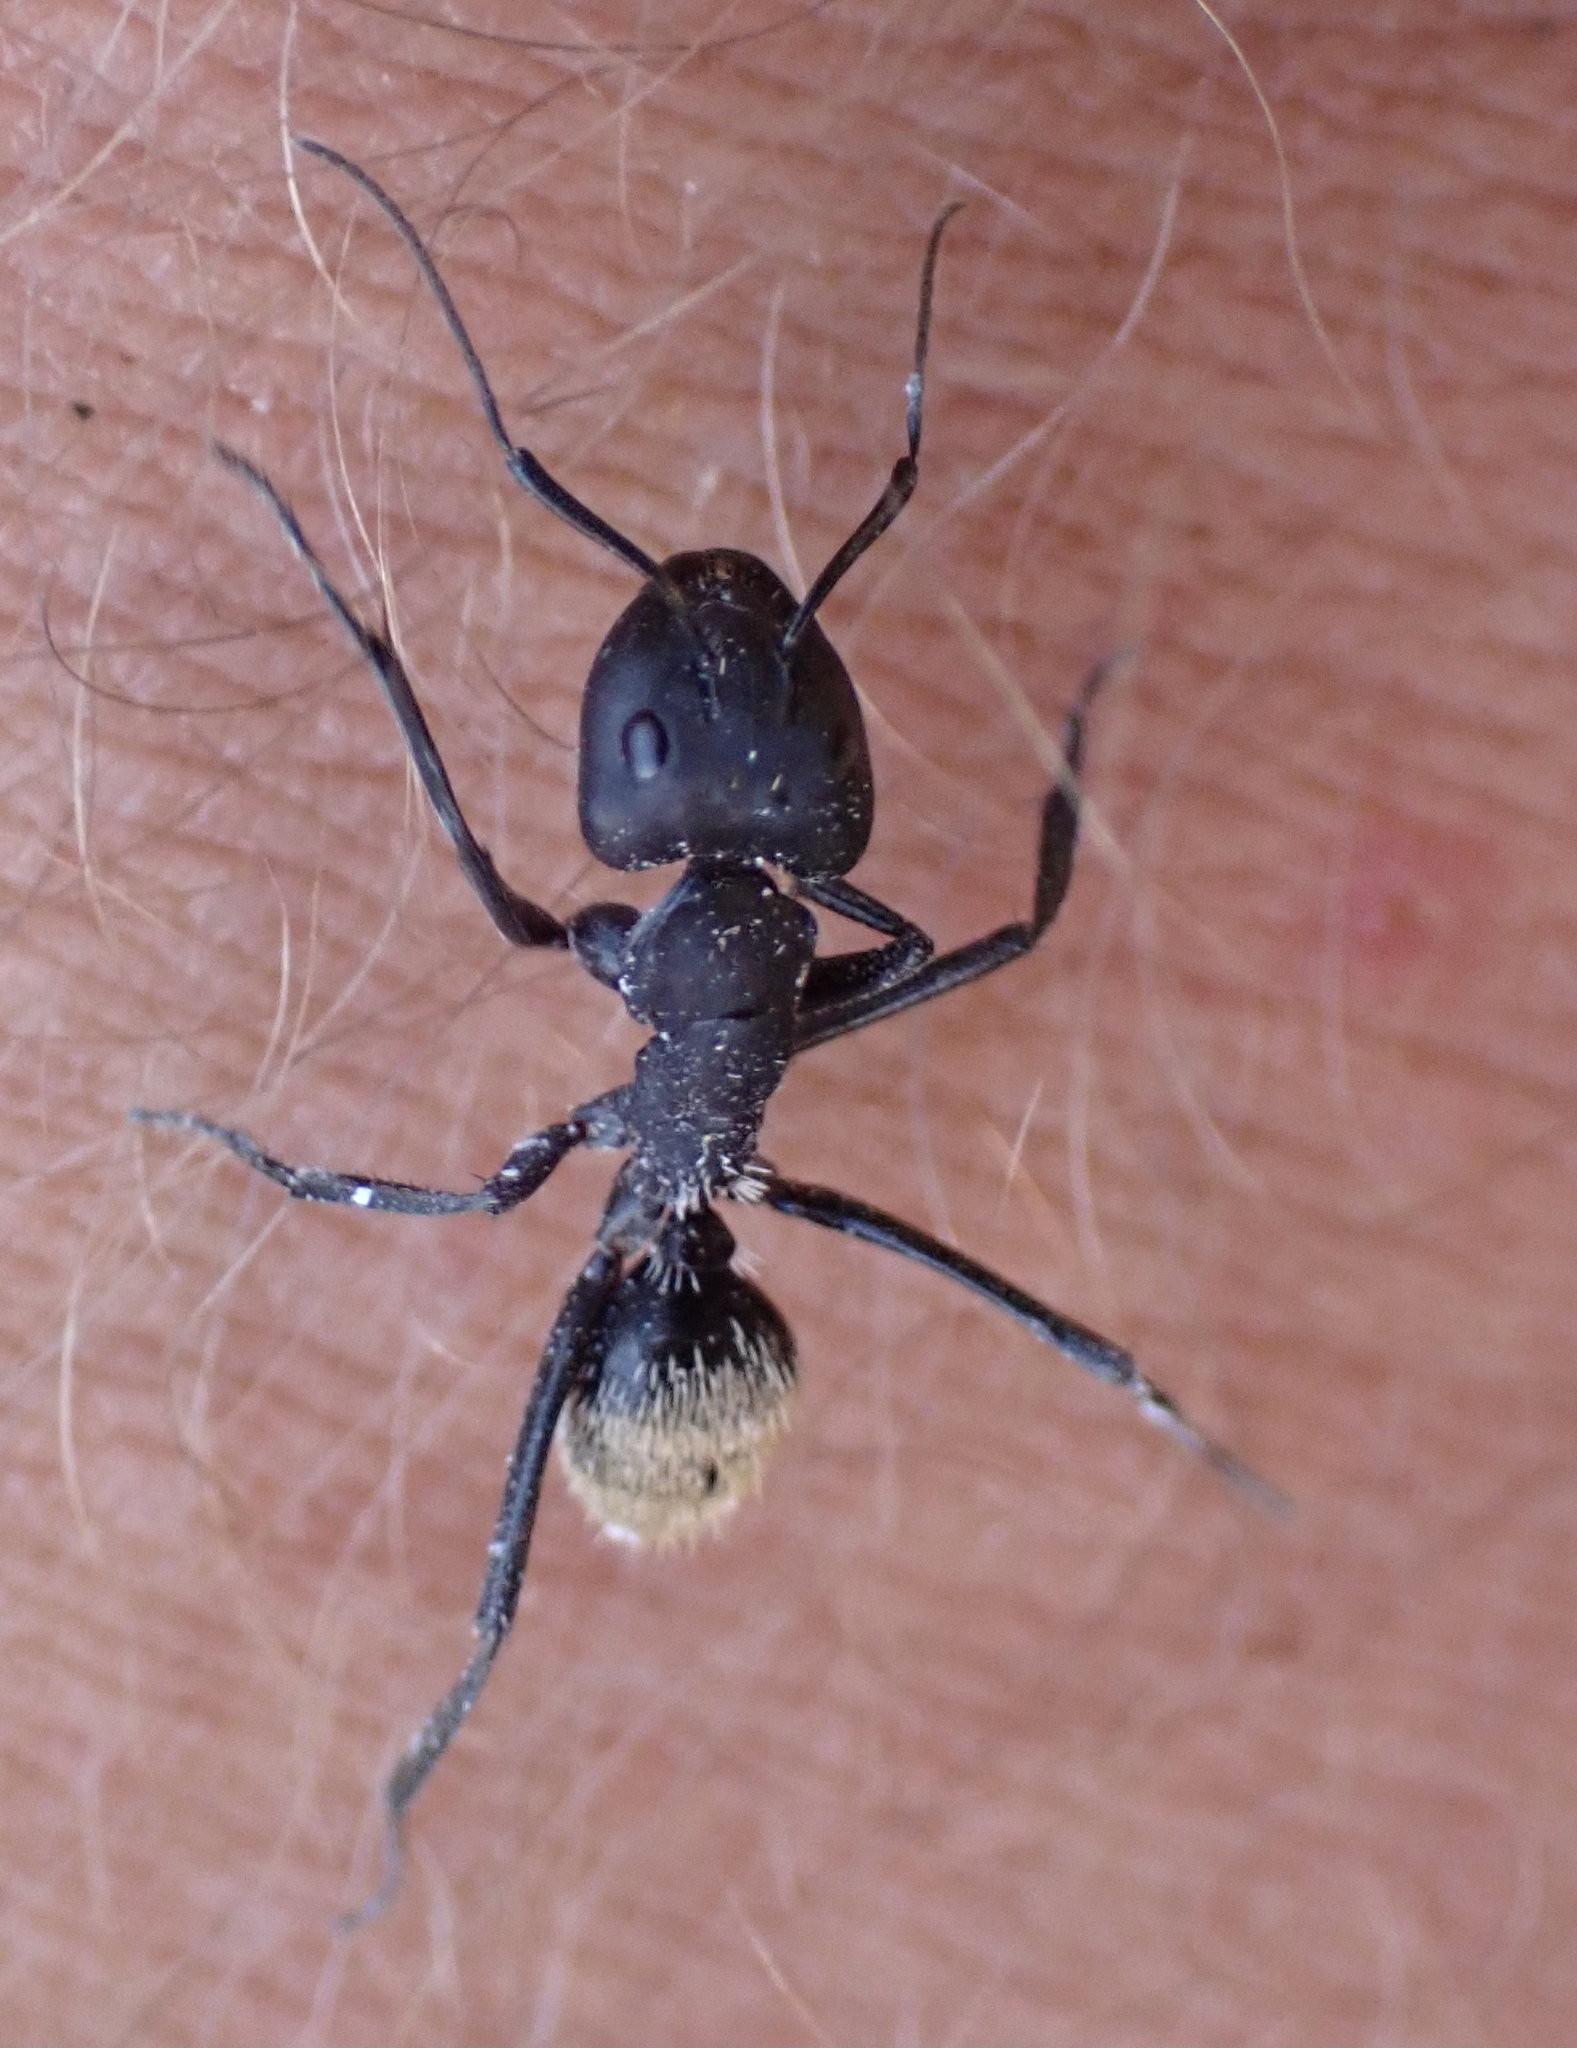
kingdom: Animalia
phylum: Arthropoda
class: Insecta
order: Hymenoptera
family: Formicidae
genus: Camponotus
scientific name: Camponotus fulvopilosus
